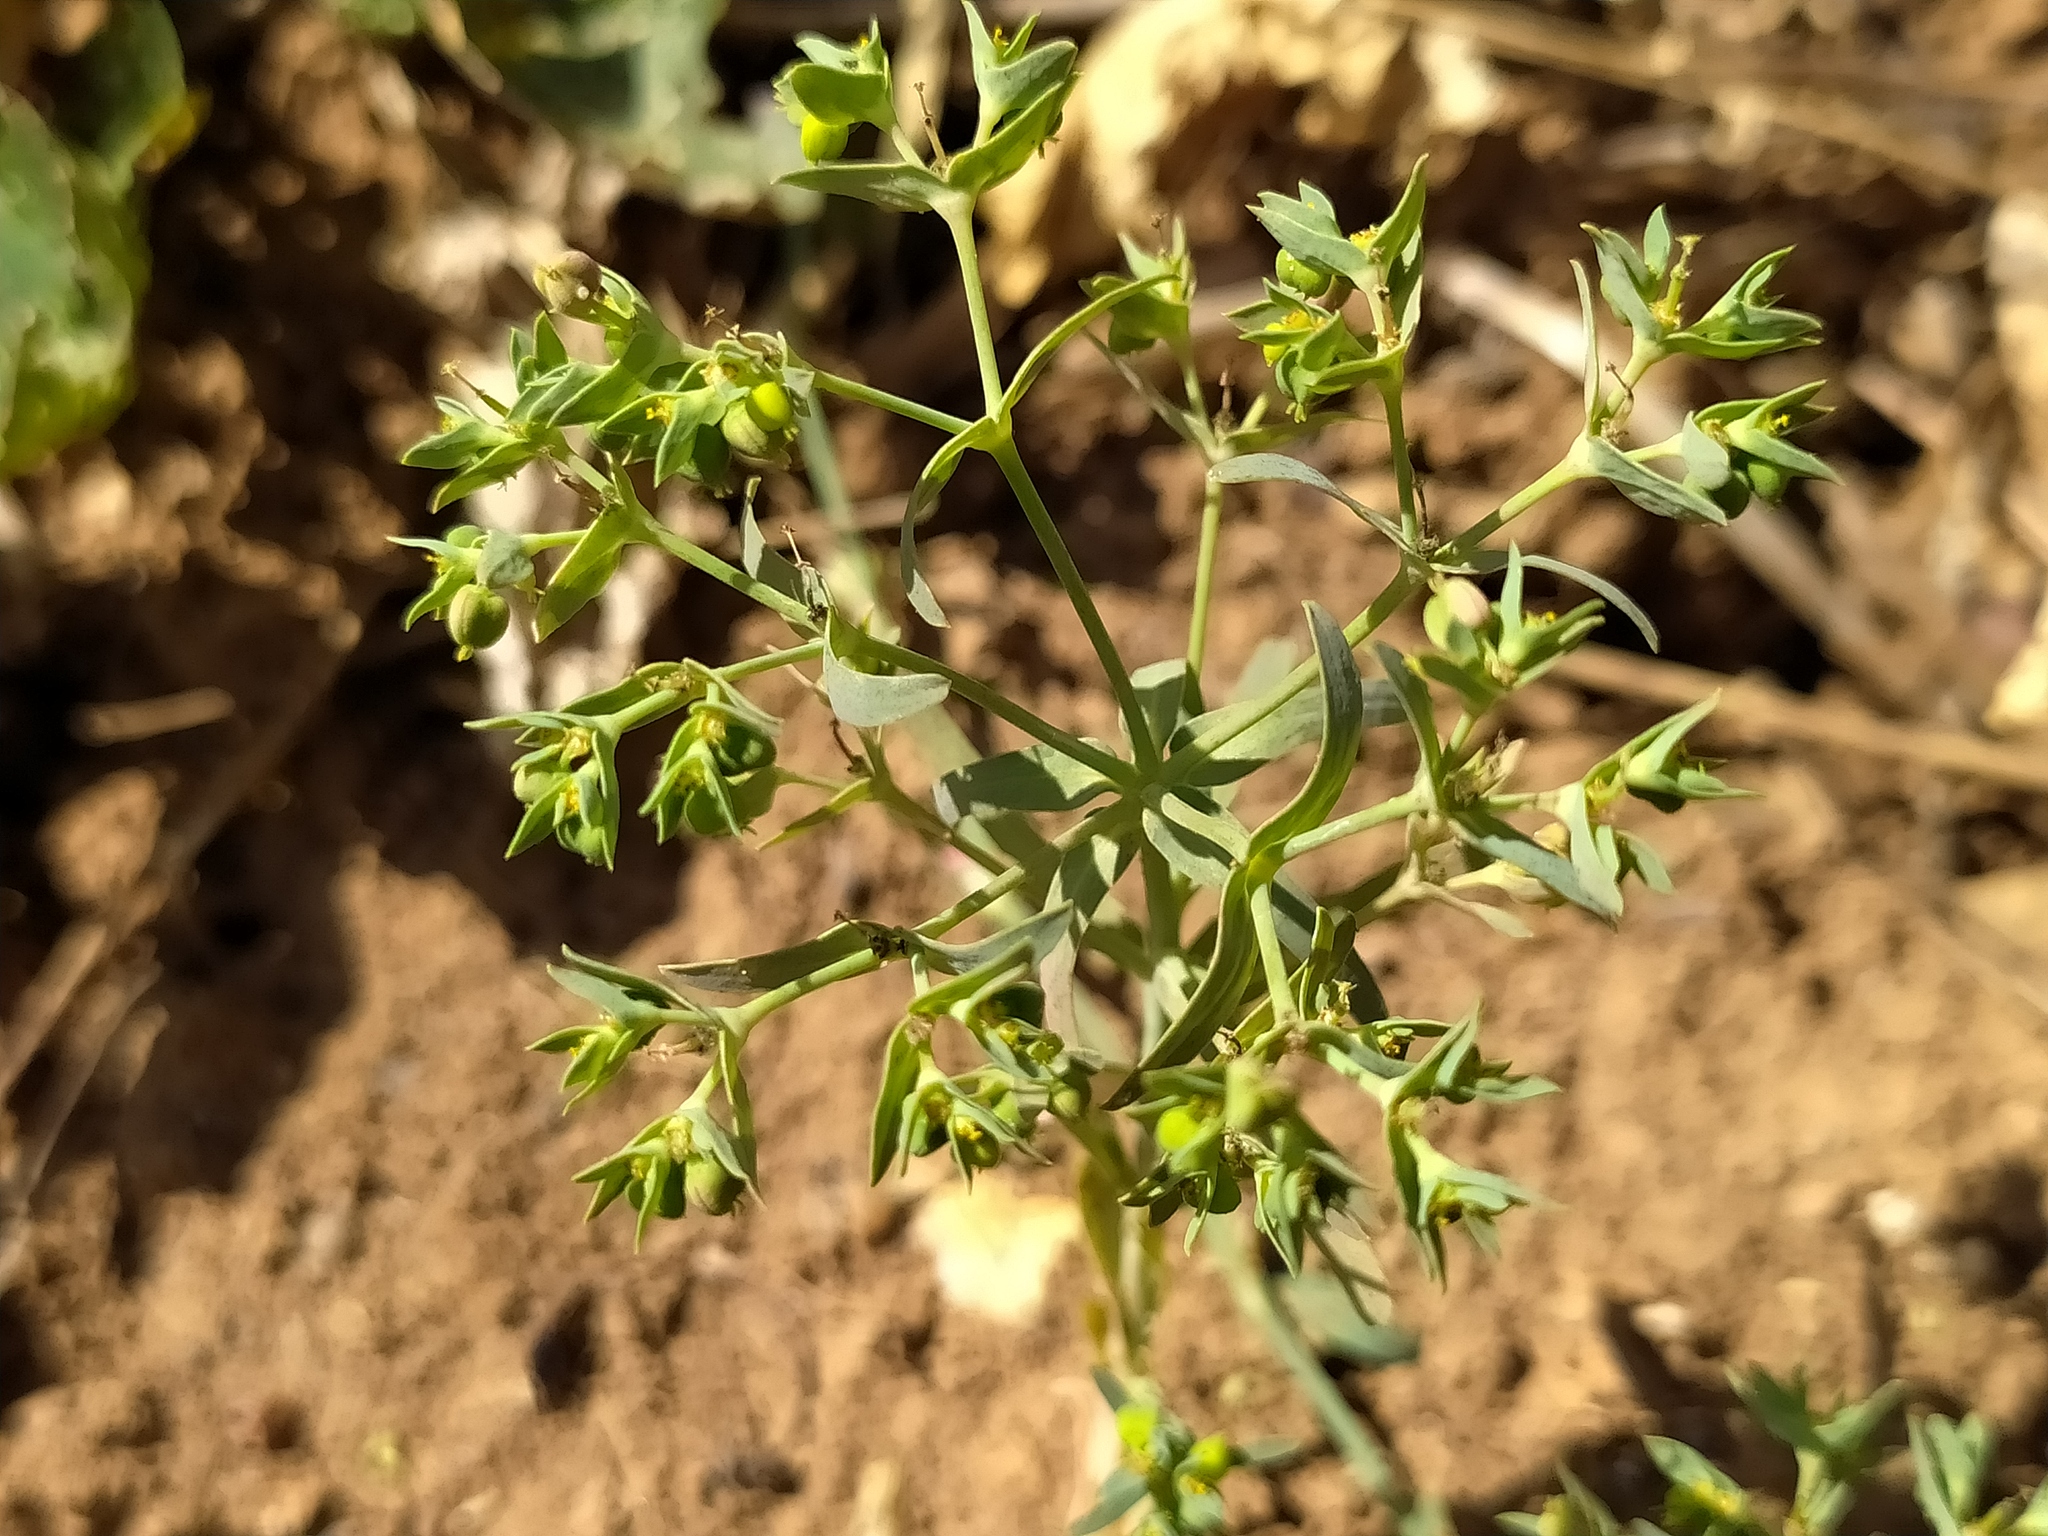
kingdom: Plantae
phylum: Tracheophyta
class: Magnoliopsida
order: Malpighiales
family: Euphorbiaceae
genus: Euphorbia
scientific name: Euphorbia exigua
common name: Dwarf spurge
